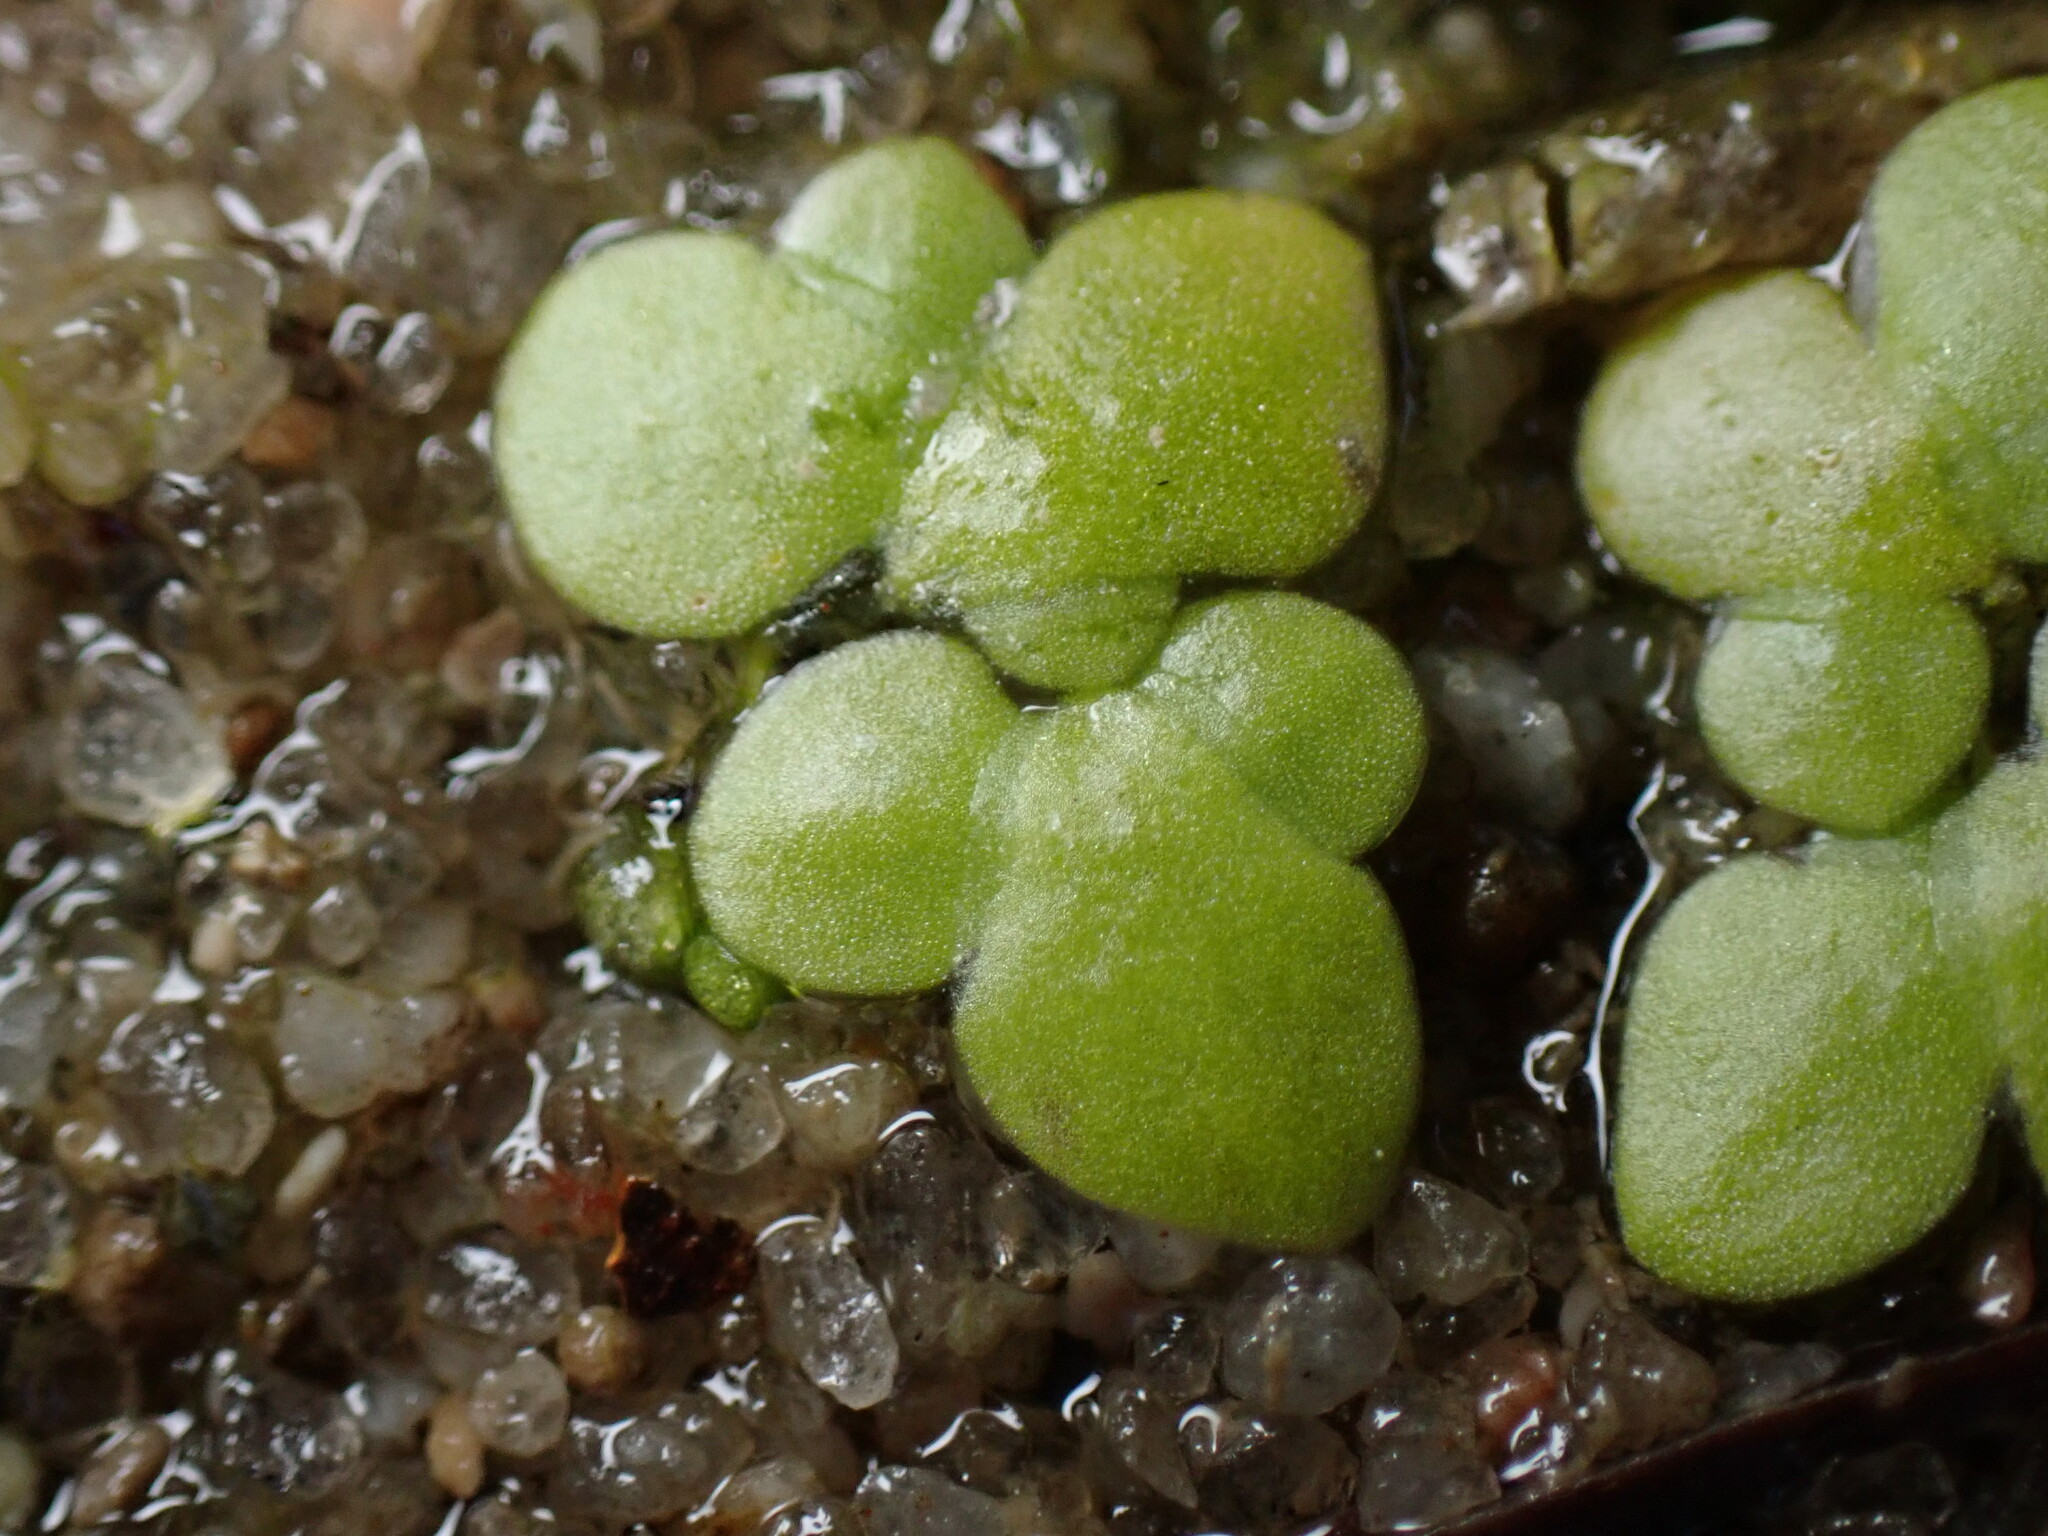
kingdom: Plantae
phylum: Tracheophyta
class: Liliopsida
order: Alismatales
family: Araceae
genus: Lemna
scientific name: Lemna minuta
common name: Least duckweed
